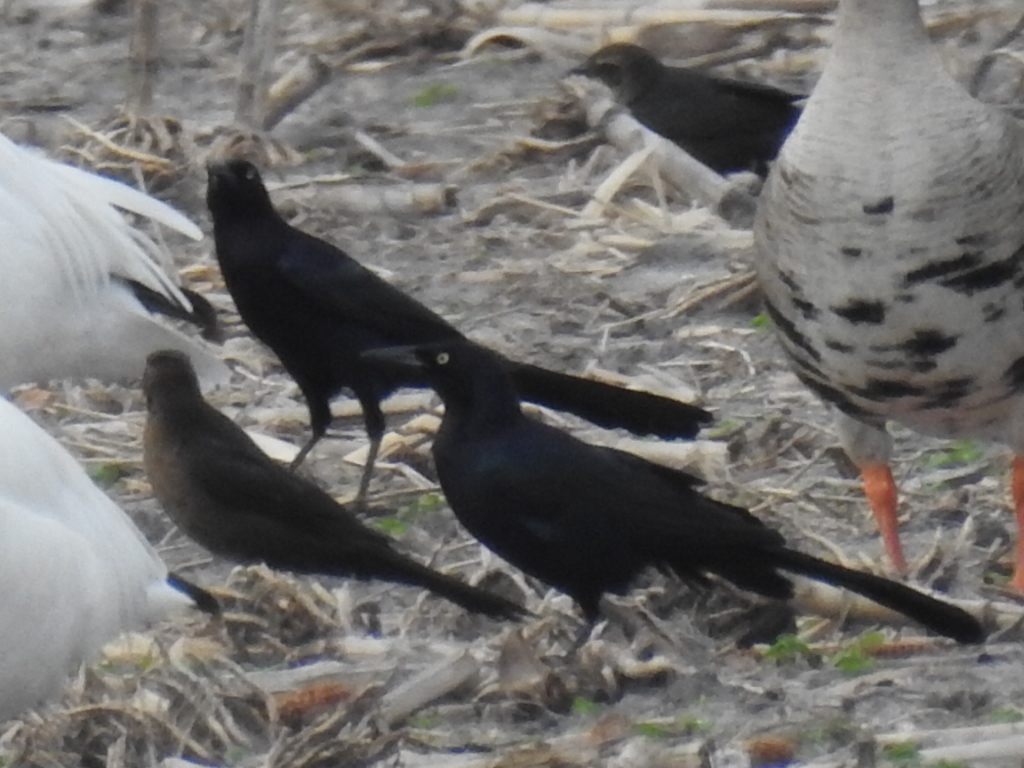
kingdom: Animalia
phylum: Chordata
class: Aves
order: Passeriformes
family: Icteridae
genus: Quiscalus
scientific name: Quiscalus mexicanus
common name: Great-tailed grackle
